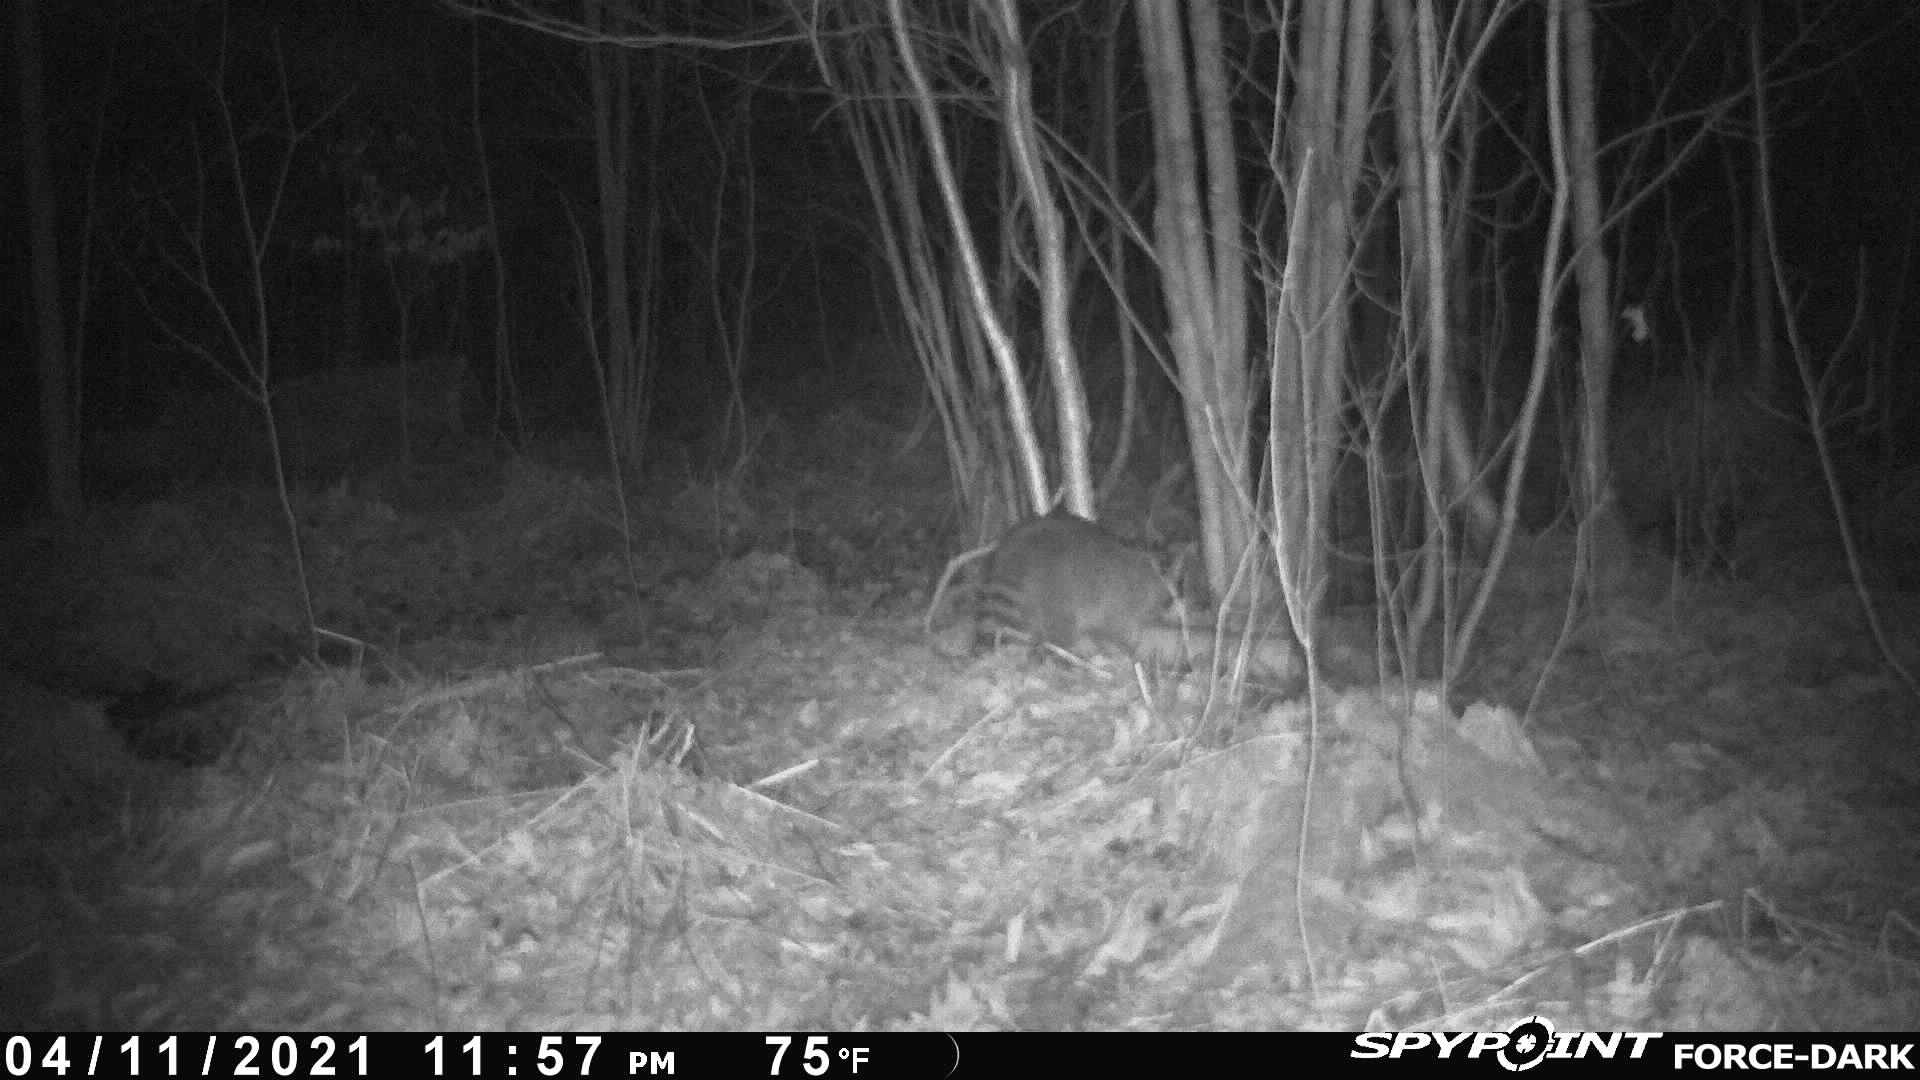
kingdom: Animalia
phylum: Chordata
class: Mammalia
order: Carnivora
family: Procyonidae
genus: Procyon
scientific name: Procyon lotor
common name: Raccoon
